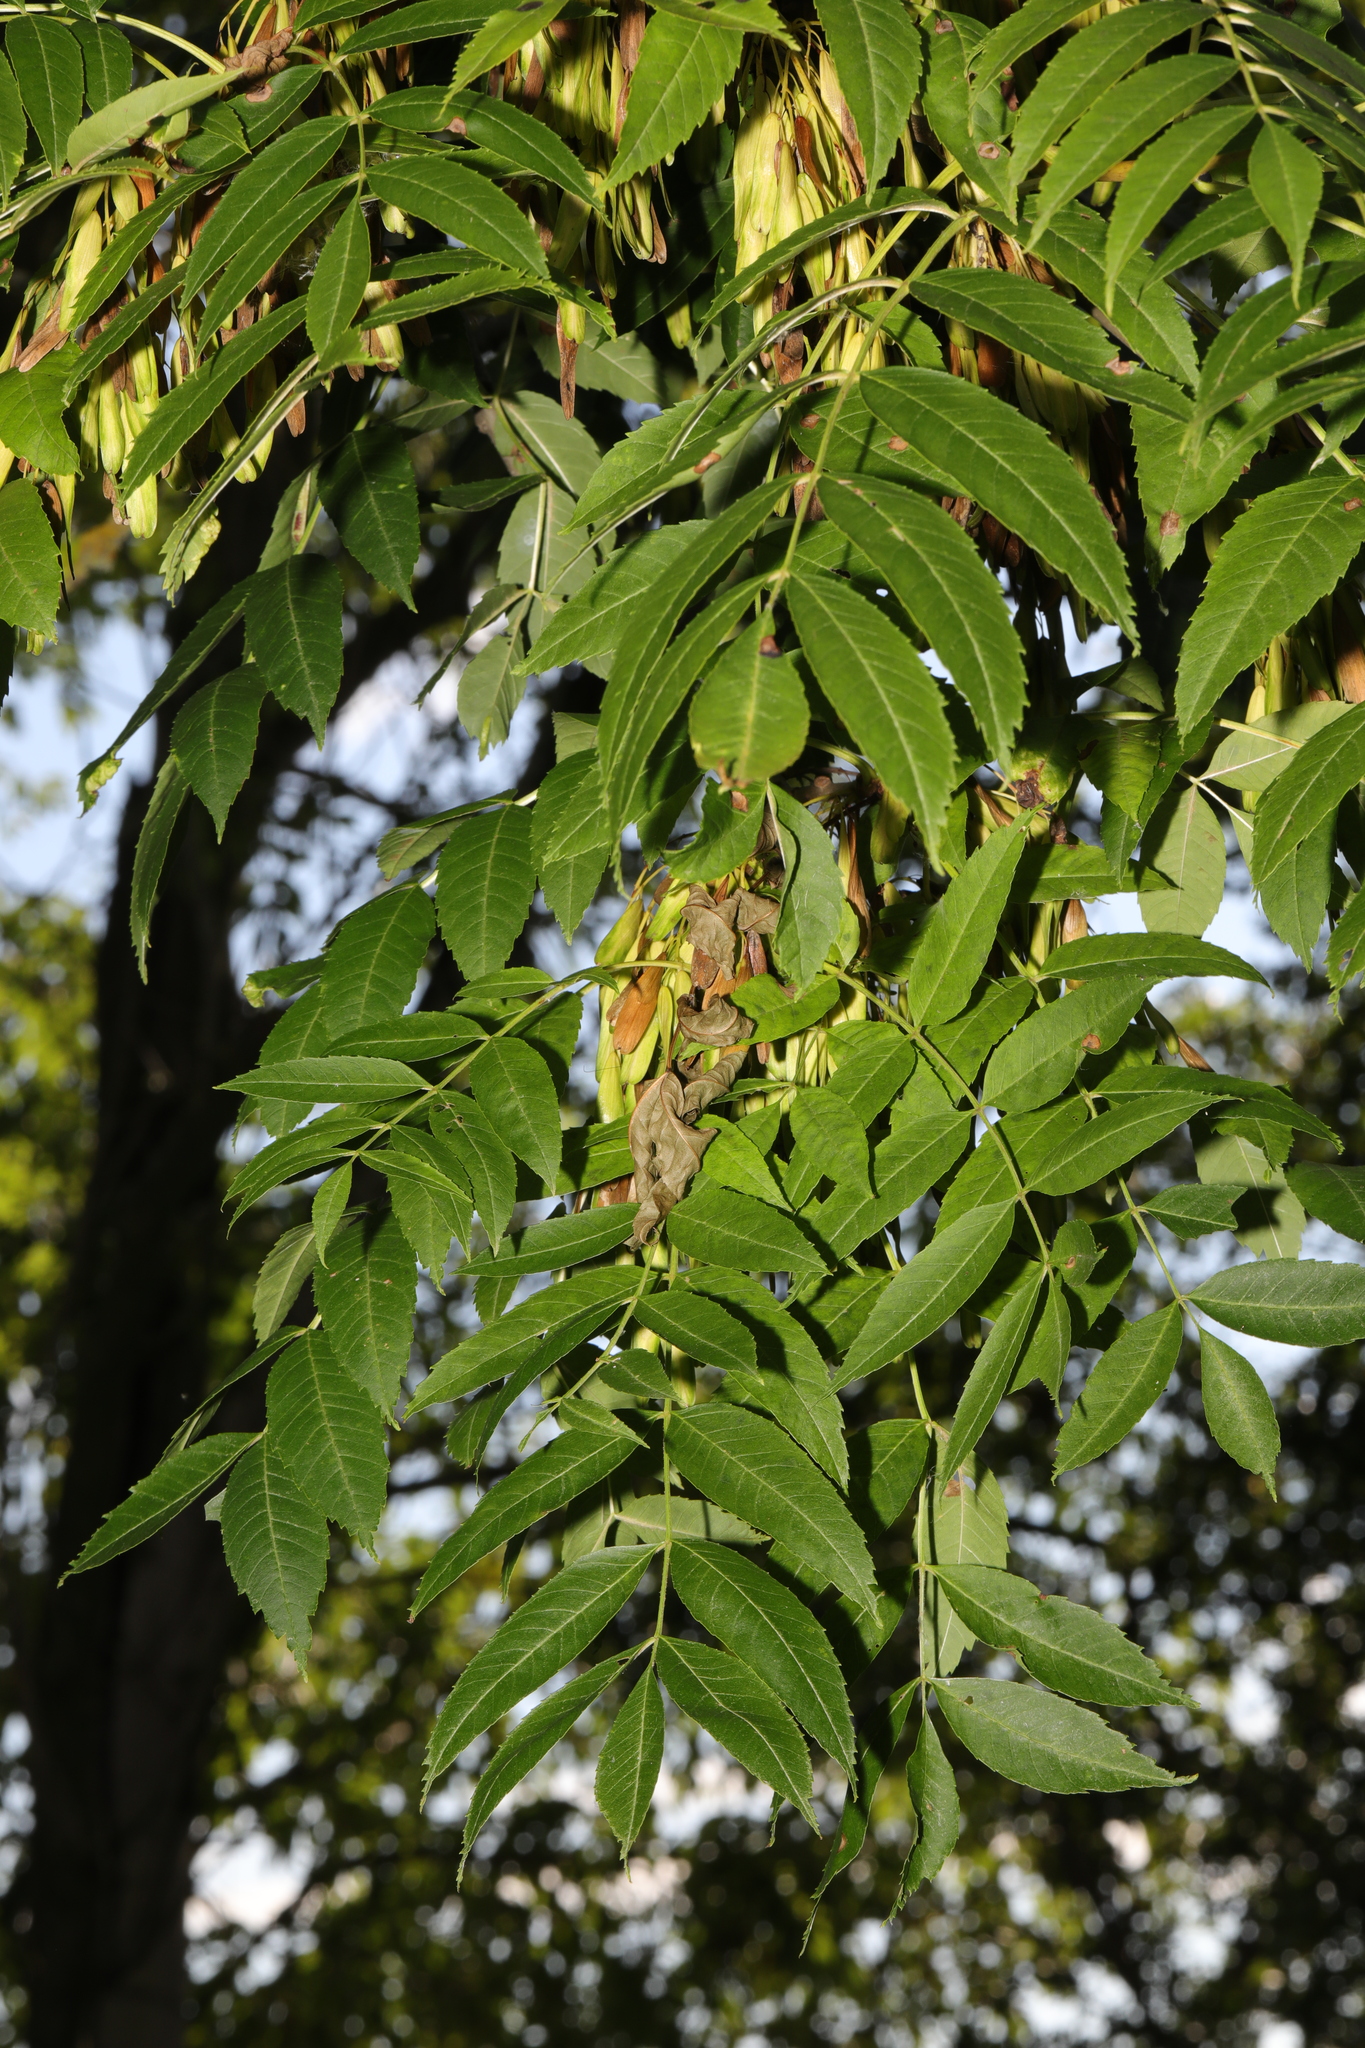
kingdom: Plantae
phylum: Tracheophyta
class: Magnoliopsida
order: Lamiales
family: Oleaceae
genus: Fraxinus
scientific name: Fraxinus excelsior
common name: European ash
